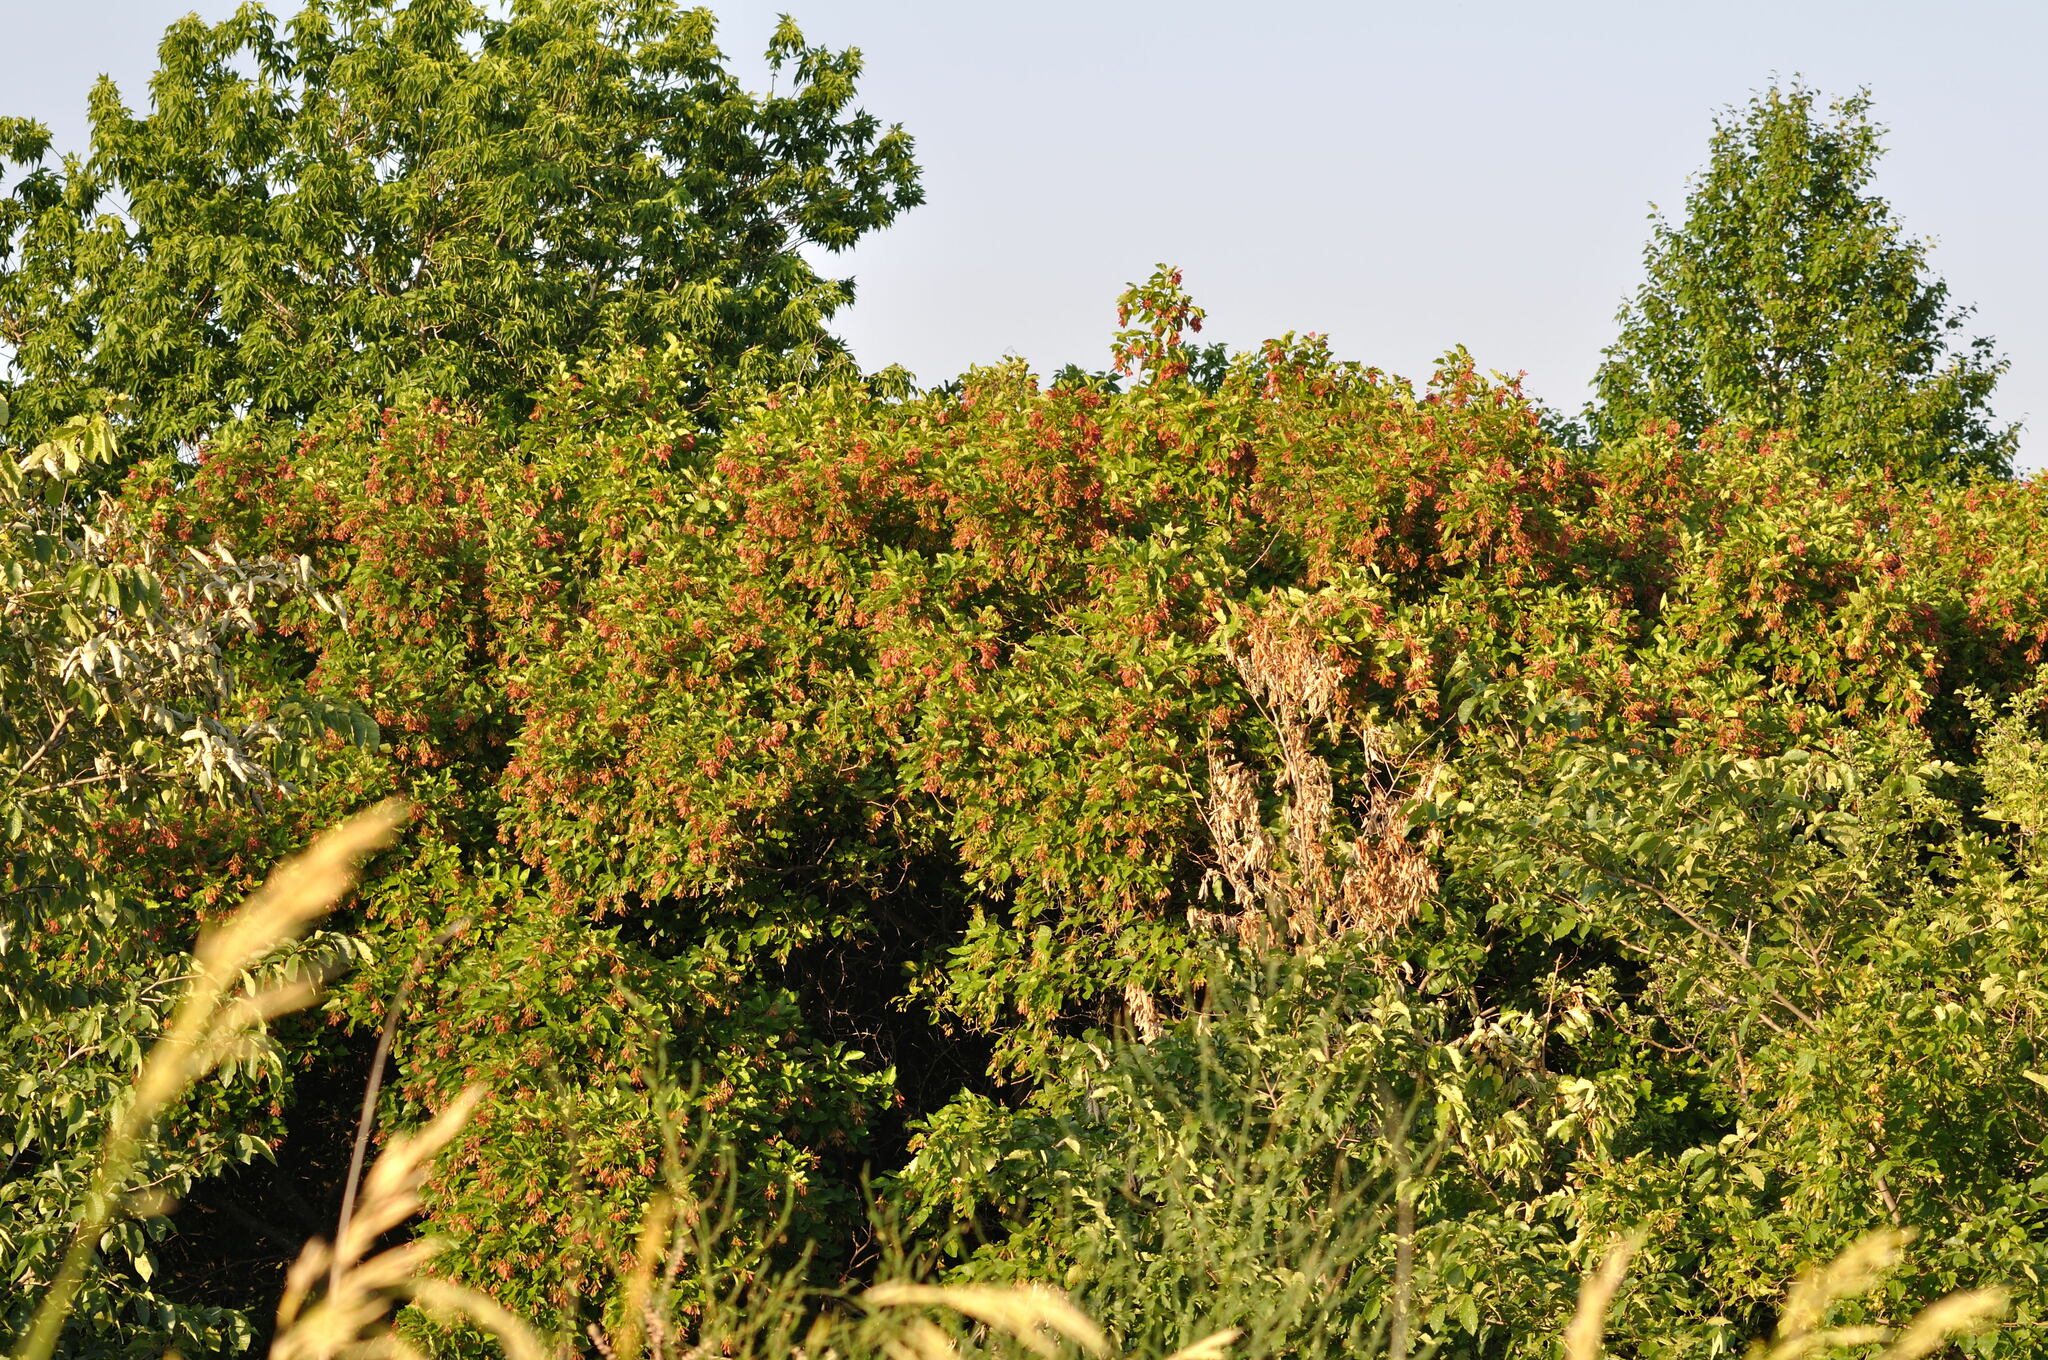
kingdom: Plantae
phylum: Tracheophyta
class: Magnoliopsida
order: Sapindales
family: Sapindaceae
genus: Acer
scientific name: Acer tataricum
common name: Tartar maple
